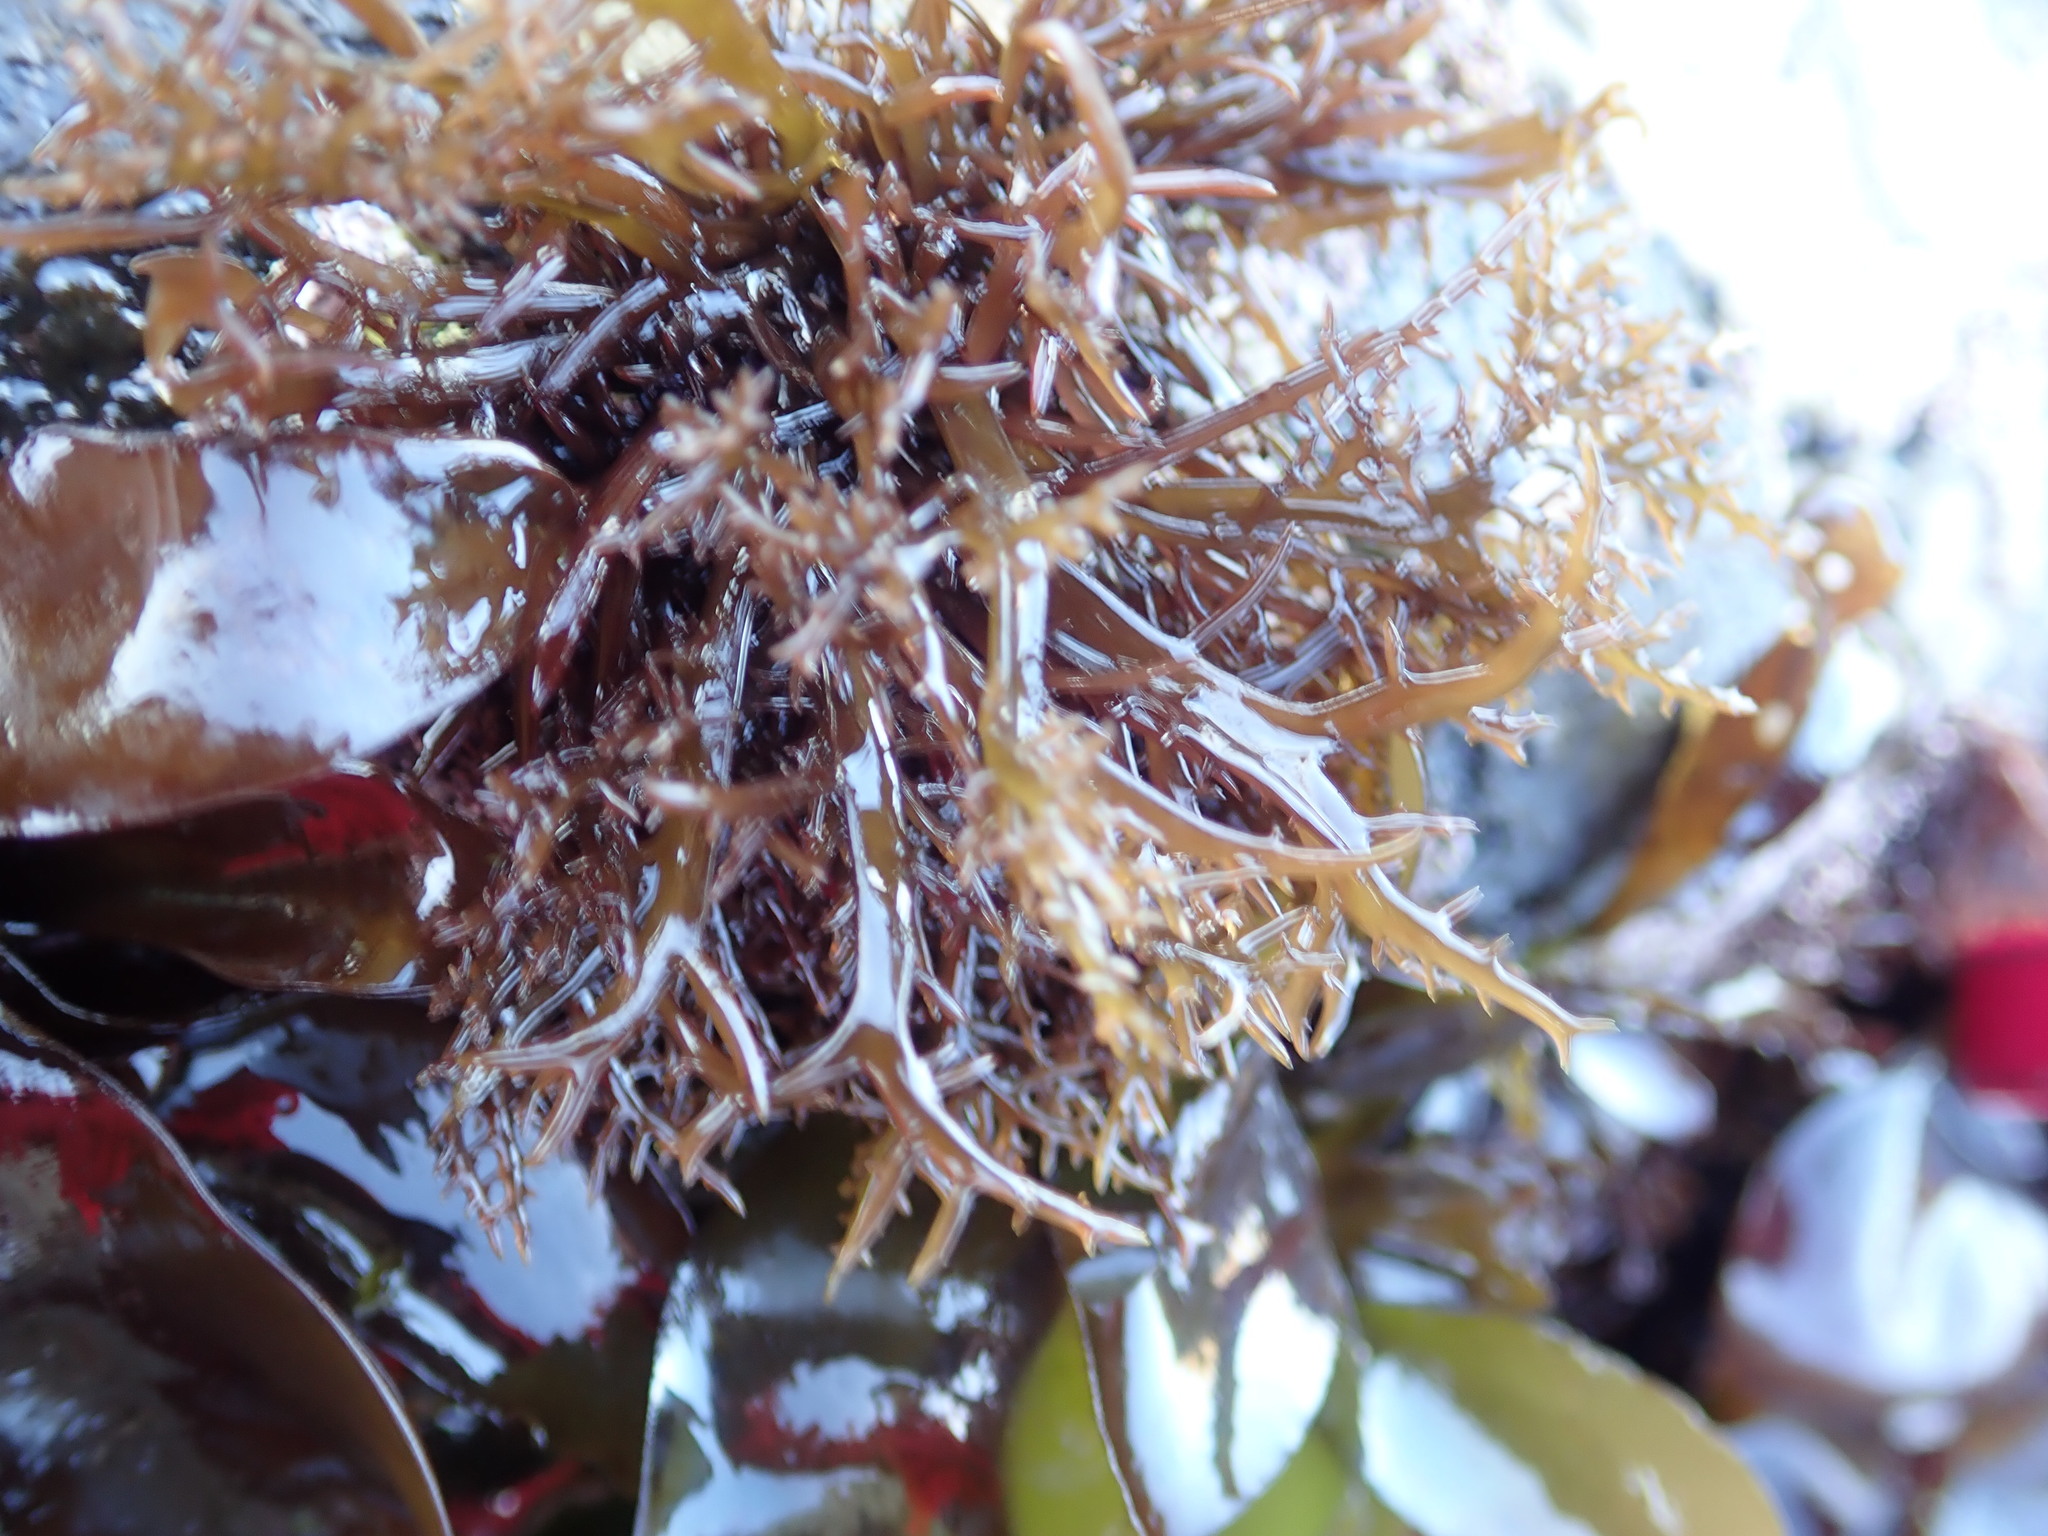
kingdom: Plantae
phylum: Rhodophyta
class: Florideophyceae
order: Gigartinales
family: Gigartinaceae
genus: Chondracanthus
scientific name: Chondracanthus canaliculatus
